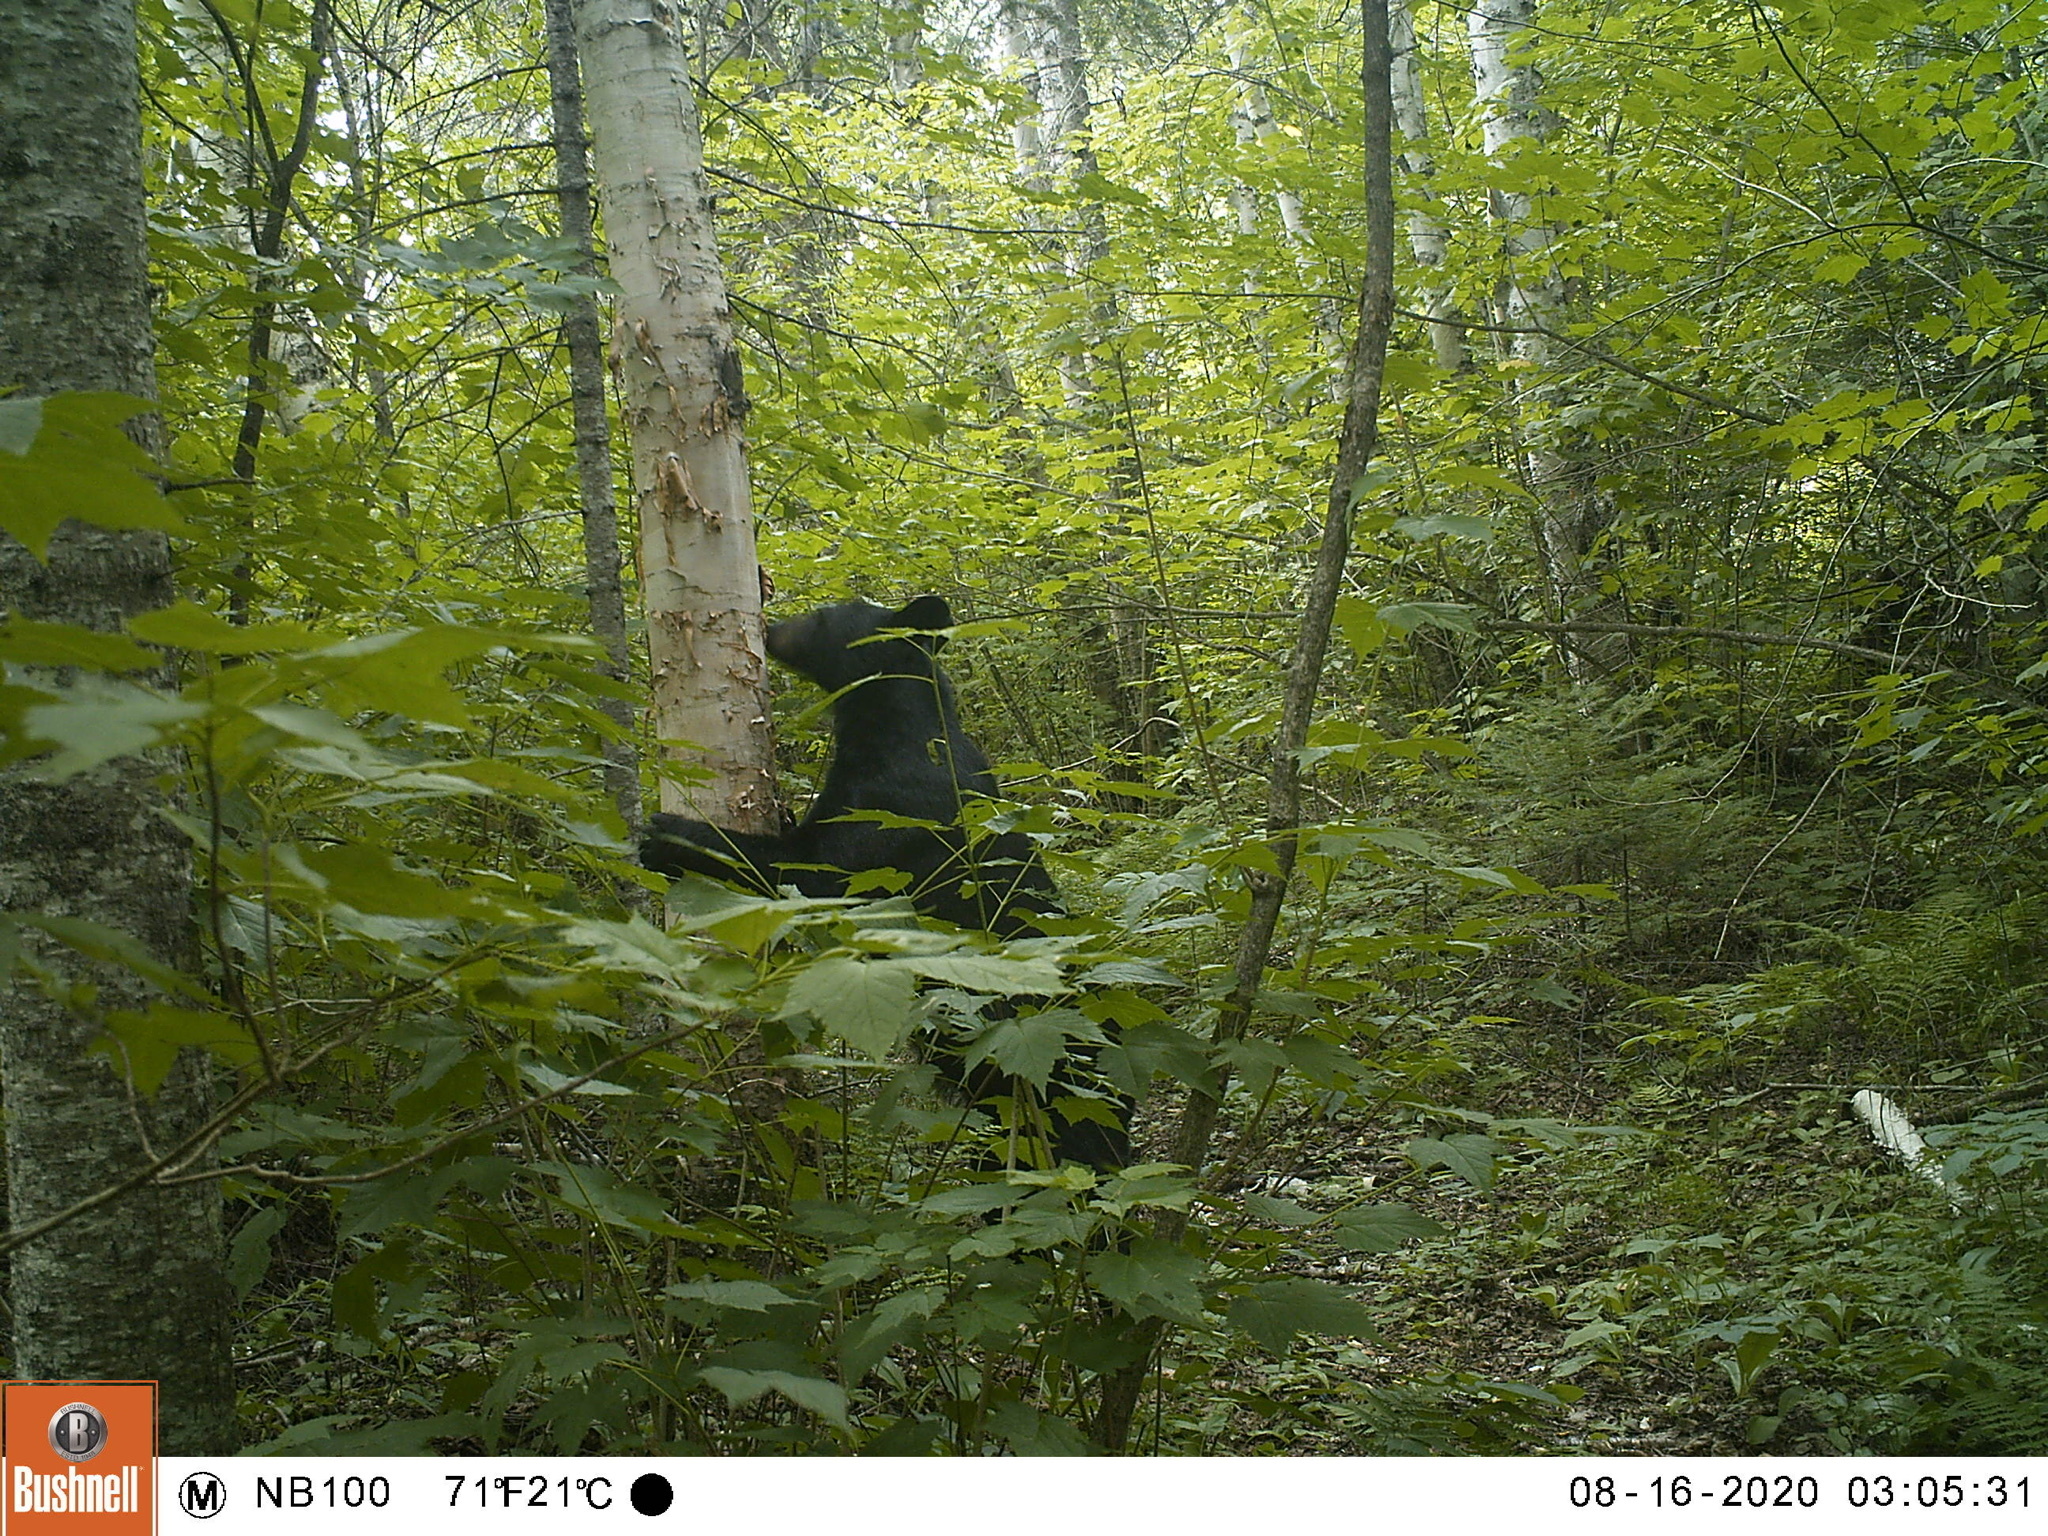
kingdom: Animalia
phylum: Chordata
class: Mammalia
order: Carnivora
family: Ursidae
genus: Ursus
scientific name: Ursus americanus
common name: American black bear
